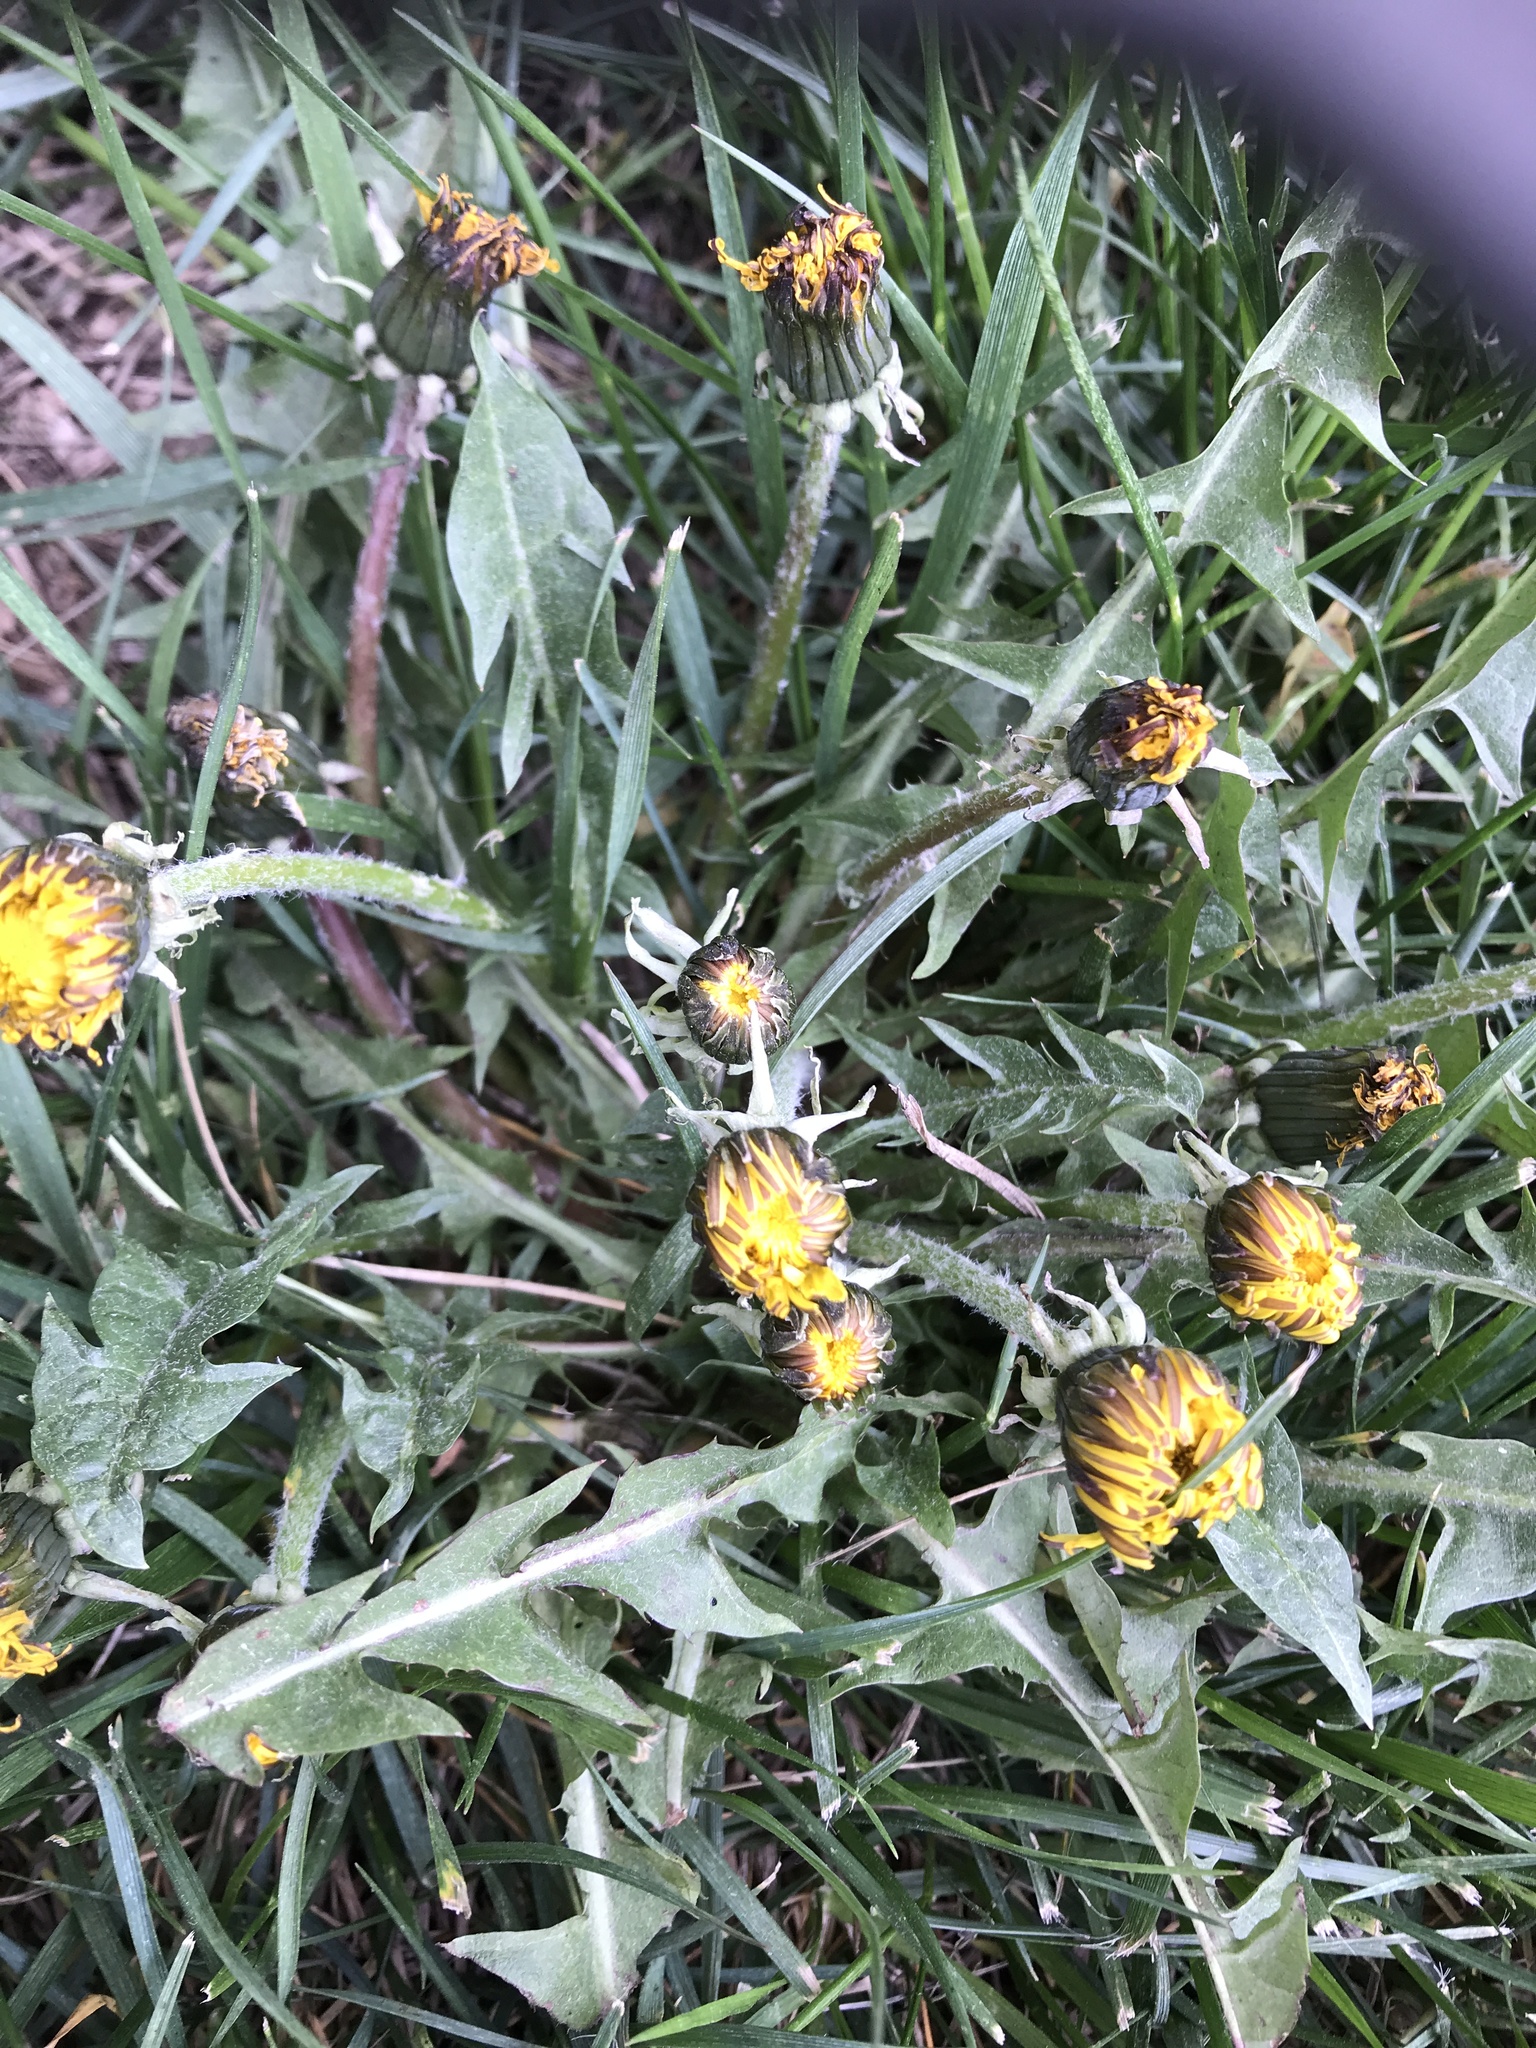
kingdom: Plantae
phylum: Tracheophyta
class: Magnoliopsida
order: Asterales
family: Asteraceae
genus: Taraxacum
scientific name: Taraxacum
